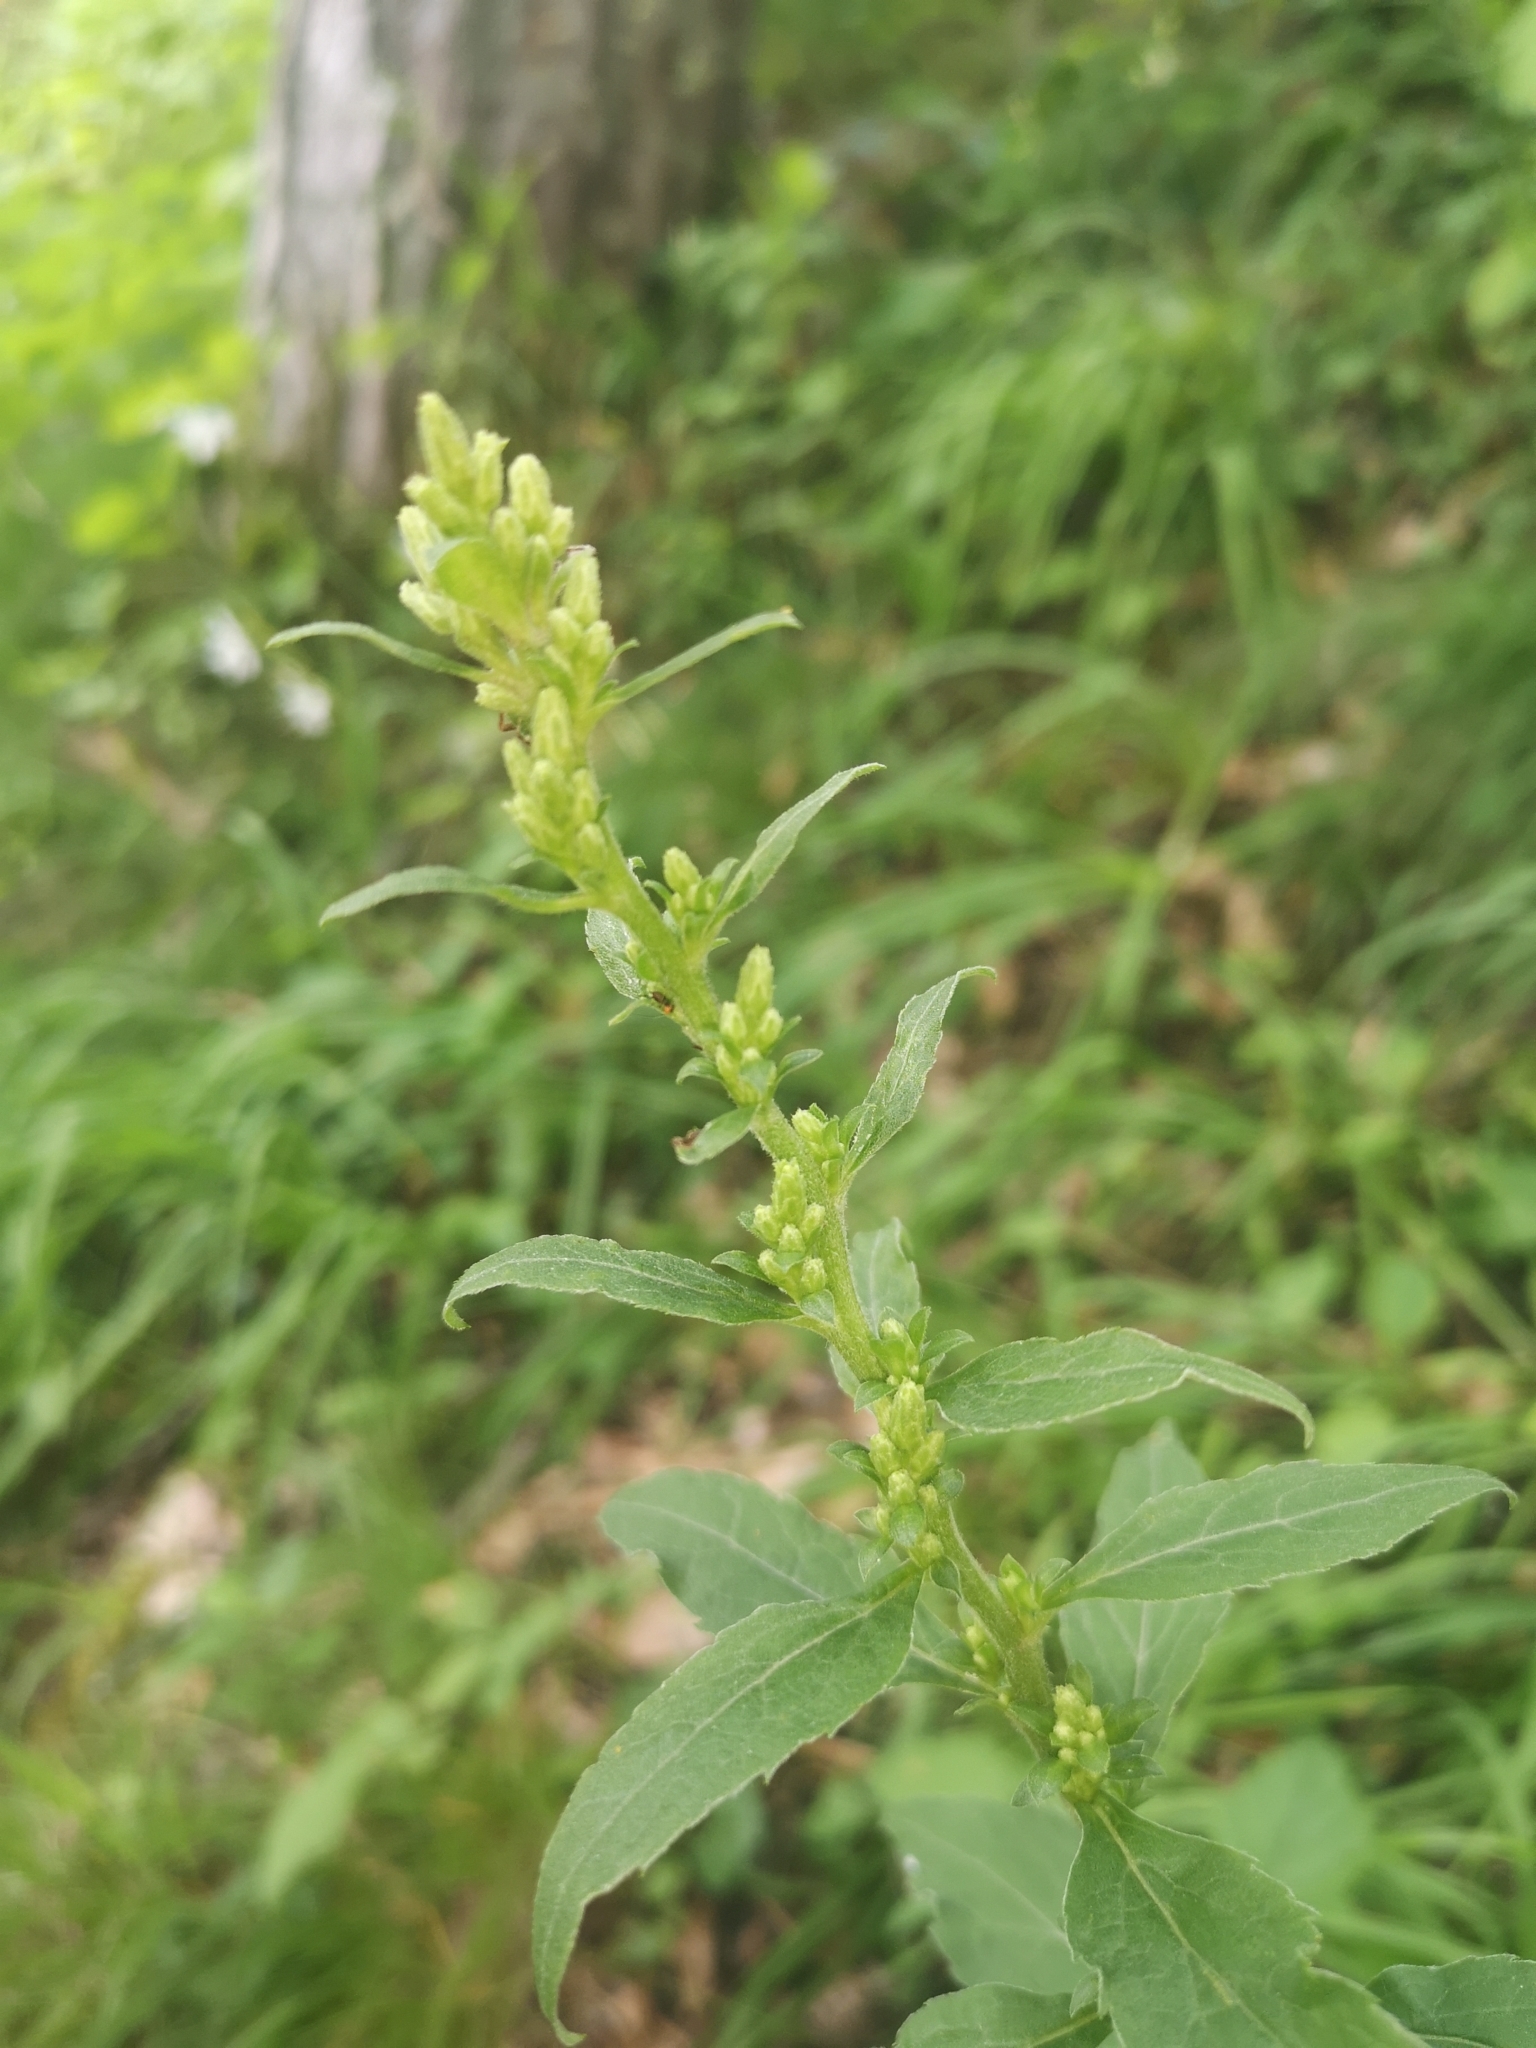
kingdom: Plantae
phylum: Tracheophyta
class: Magnoliopsida
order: Asterales
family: Asteraceae
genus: Solidago
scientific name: Solidago virgaurea
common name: Goldenrod
